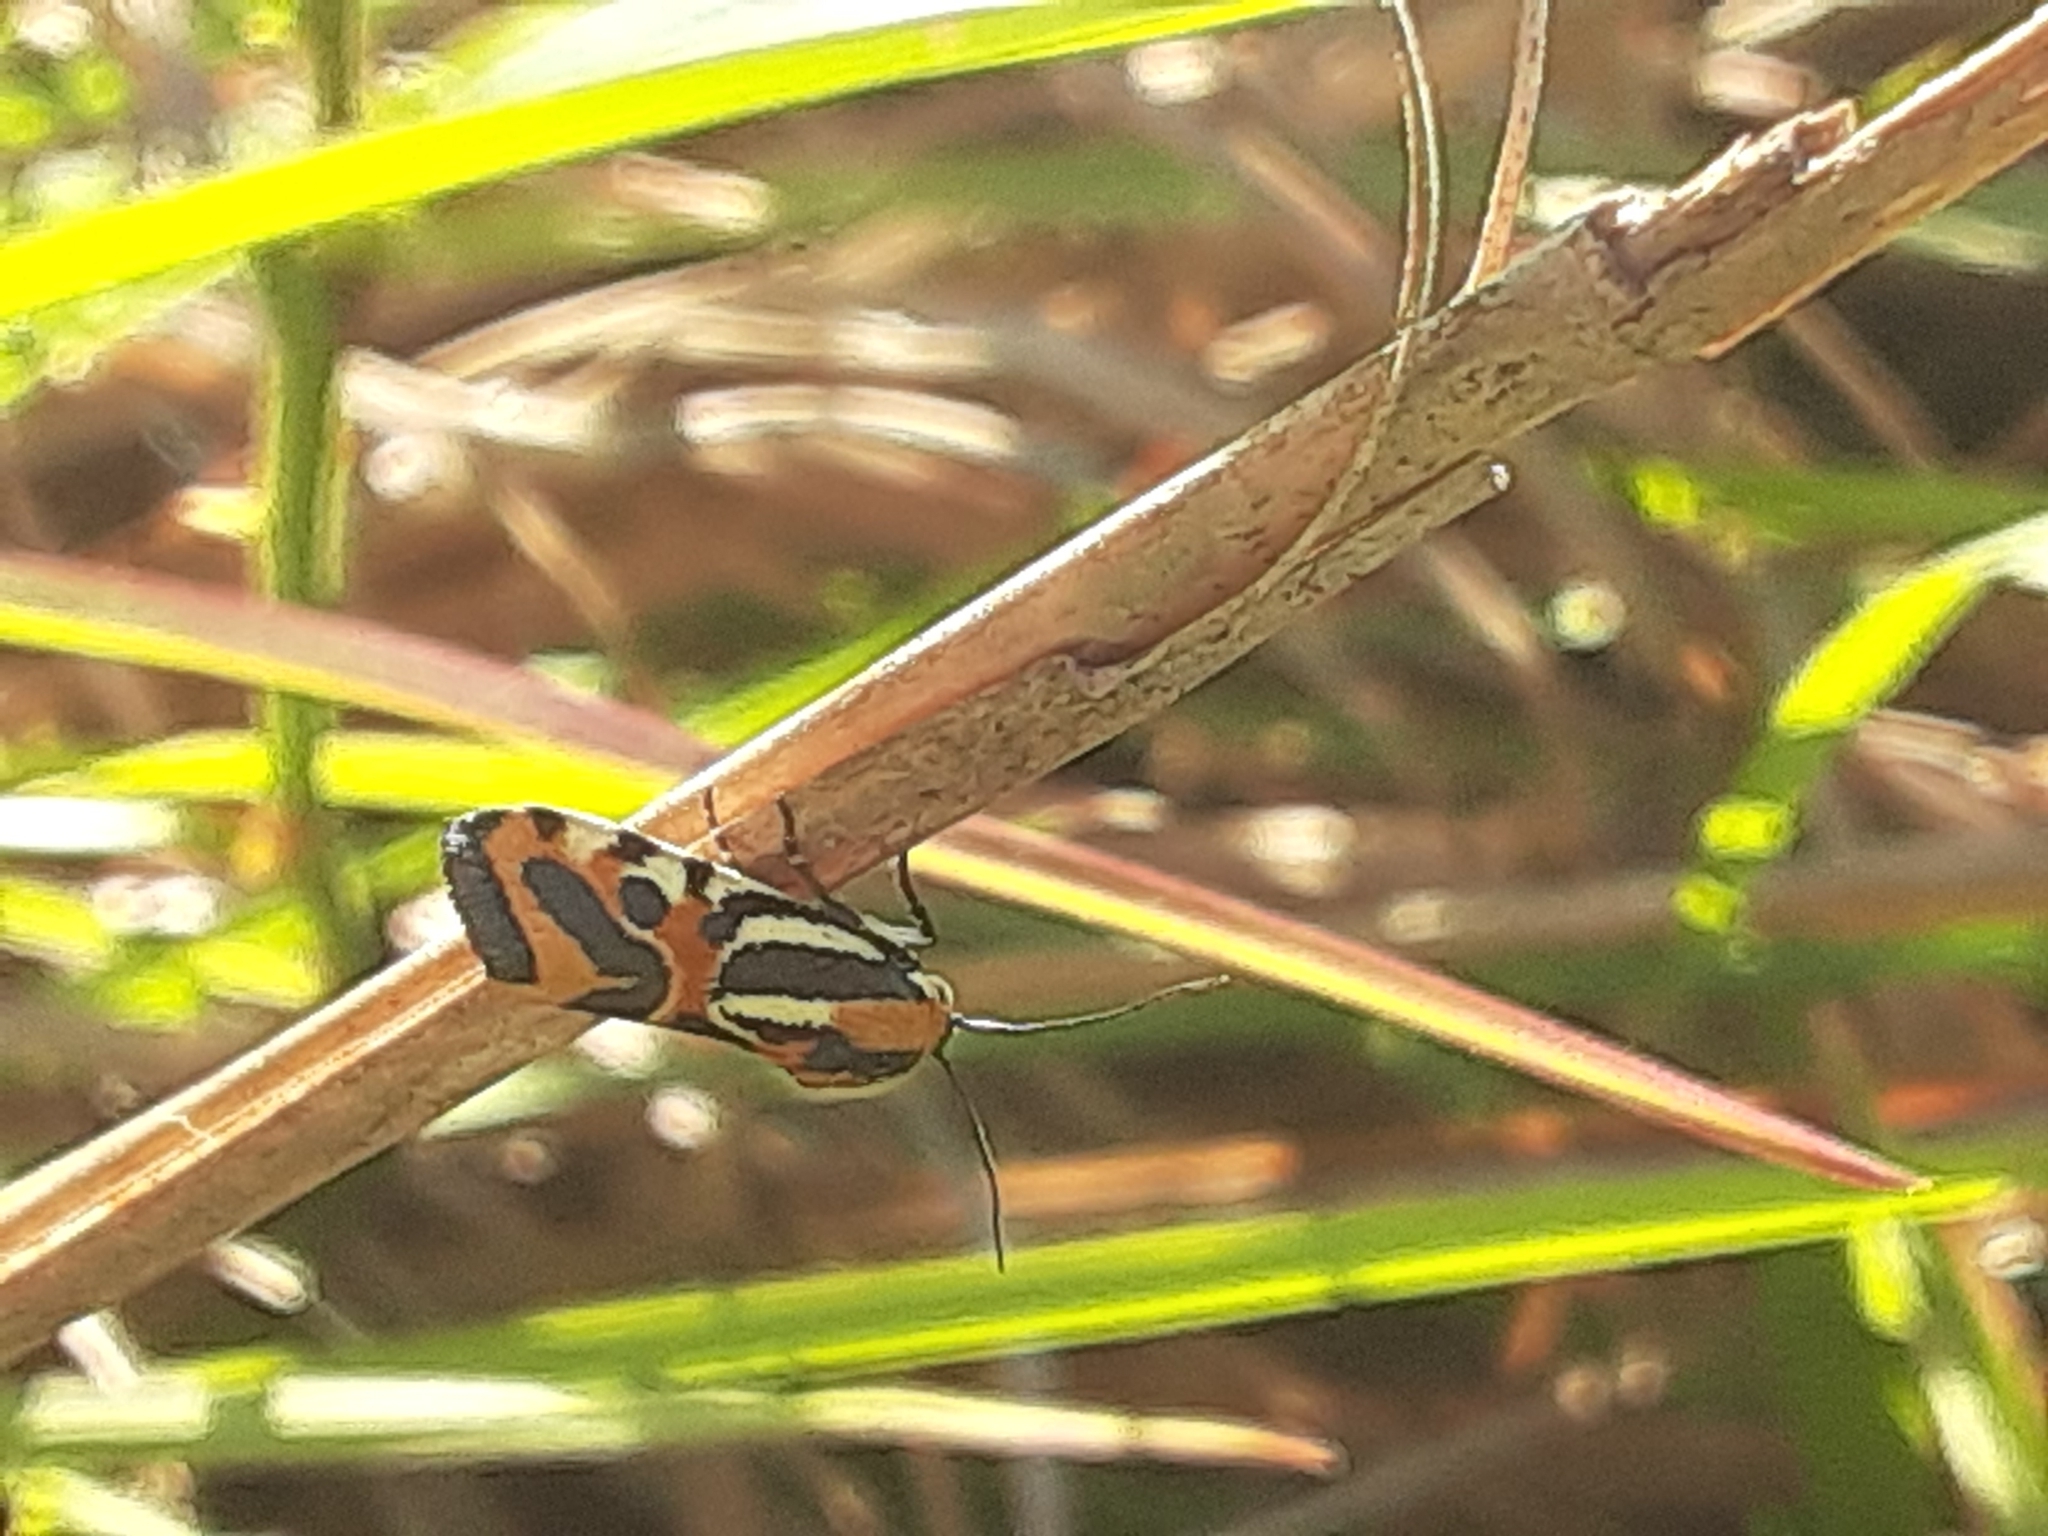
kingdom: Animalia
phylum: Arthropoda
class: Insecta
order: Lepidoptera
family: Noctuidae
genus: Acontia
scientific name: Acontia onagrus
